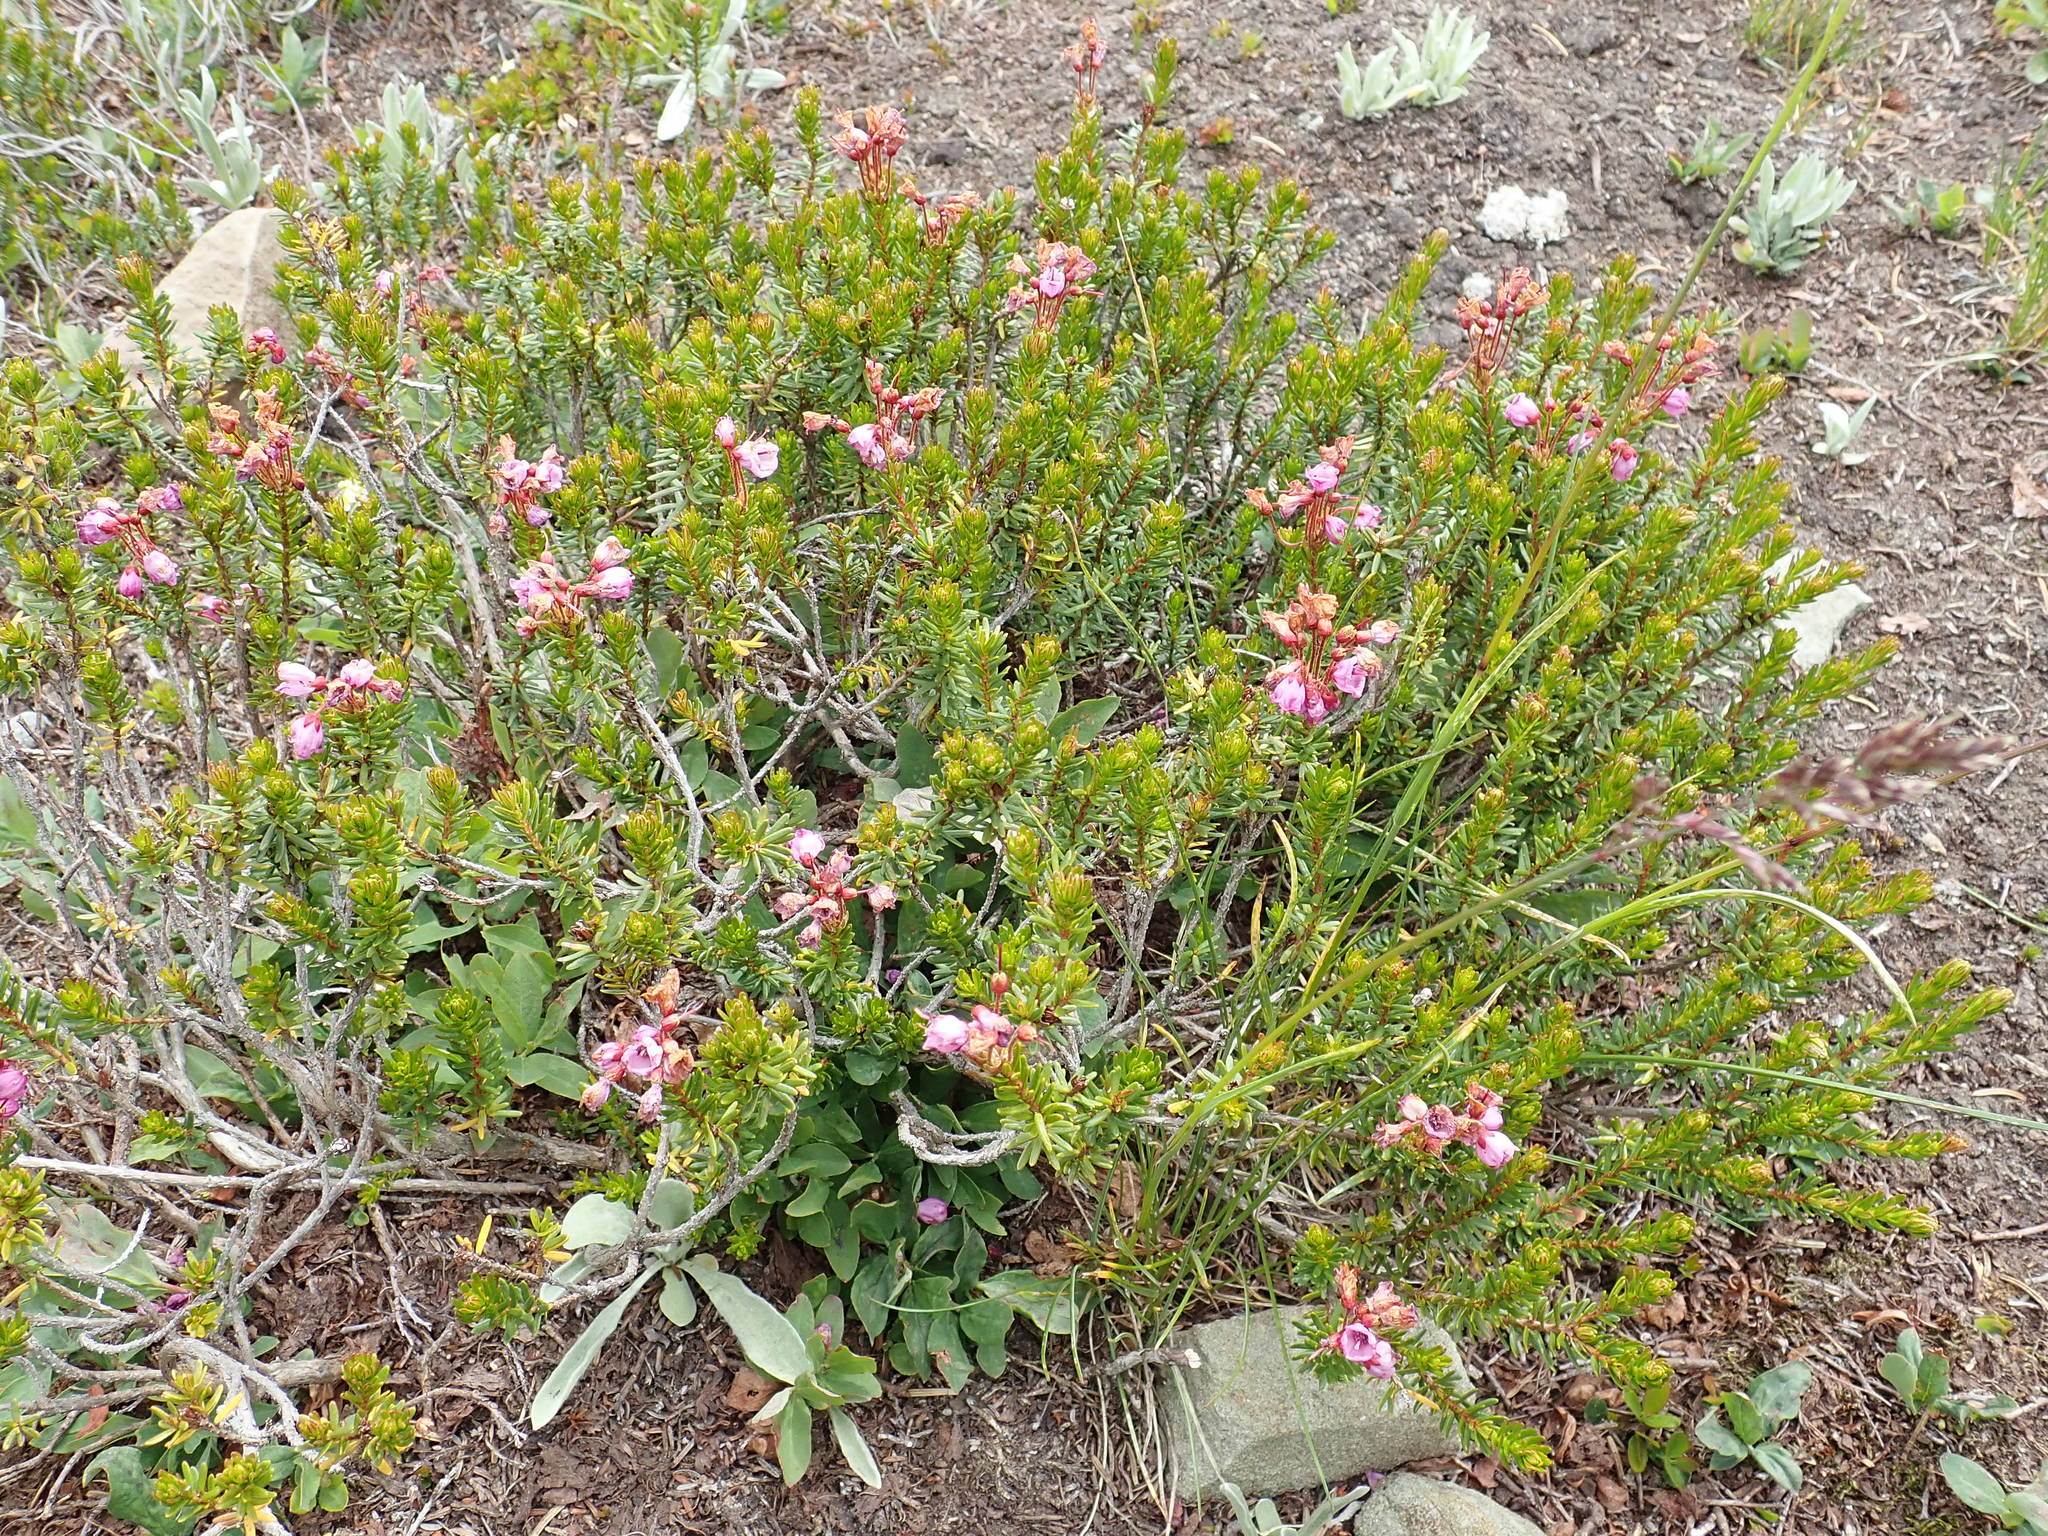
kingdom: Plantae
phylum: Tracheophyta
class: Magnoliopsida
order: Ericales
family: Ericaceae
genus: Phyllodoce
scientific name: Phyllodoce empetriformis
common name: Pink mountain heather
